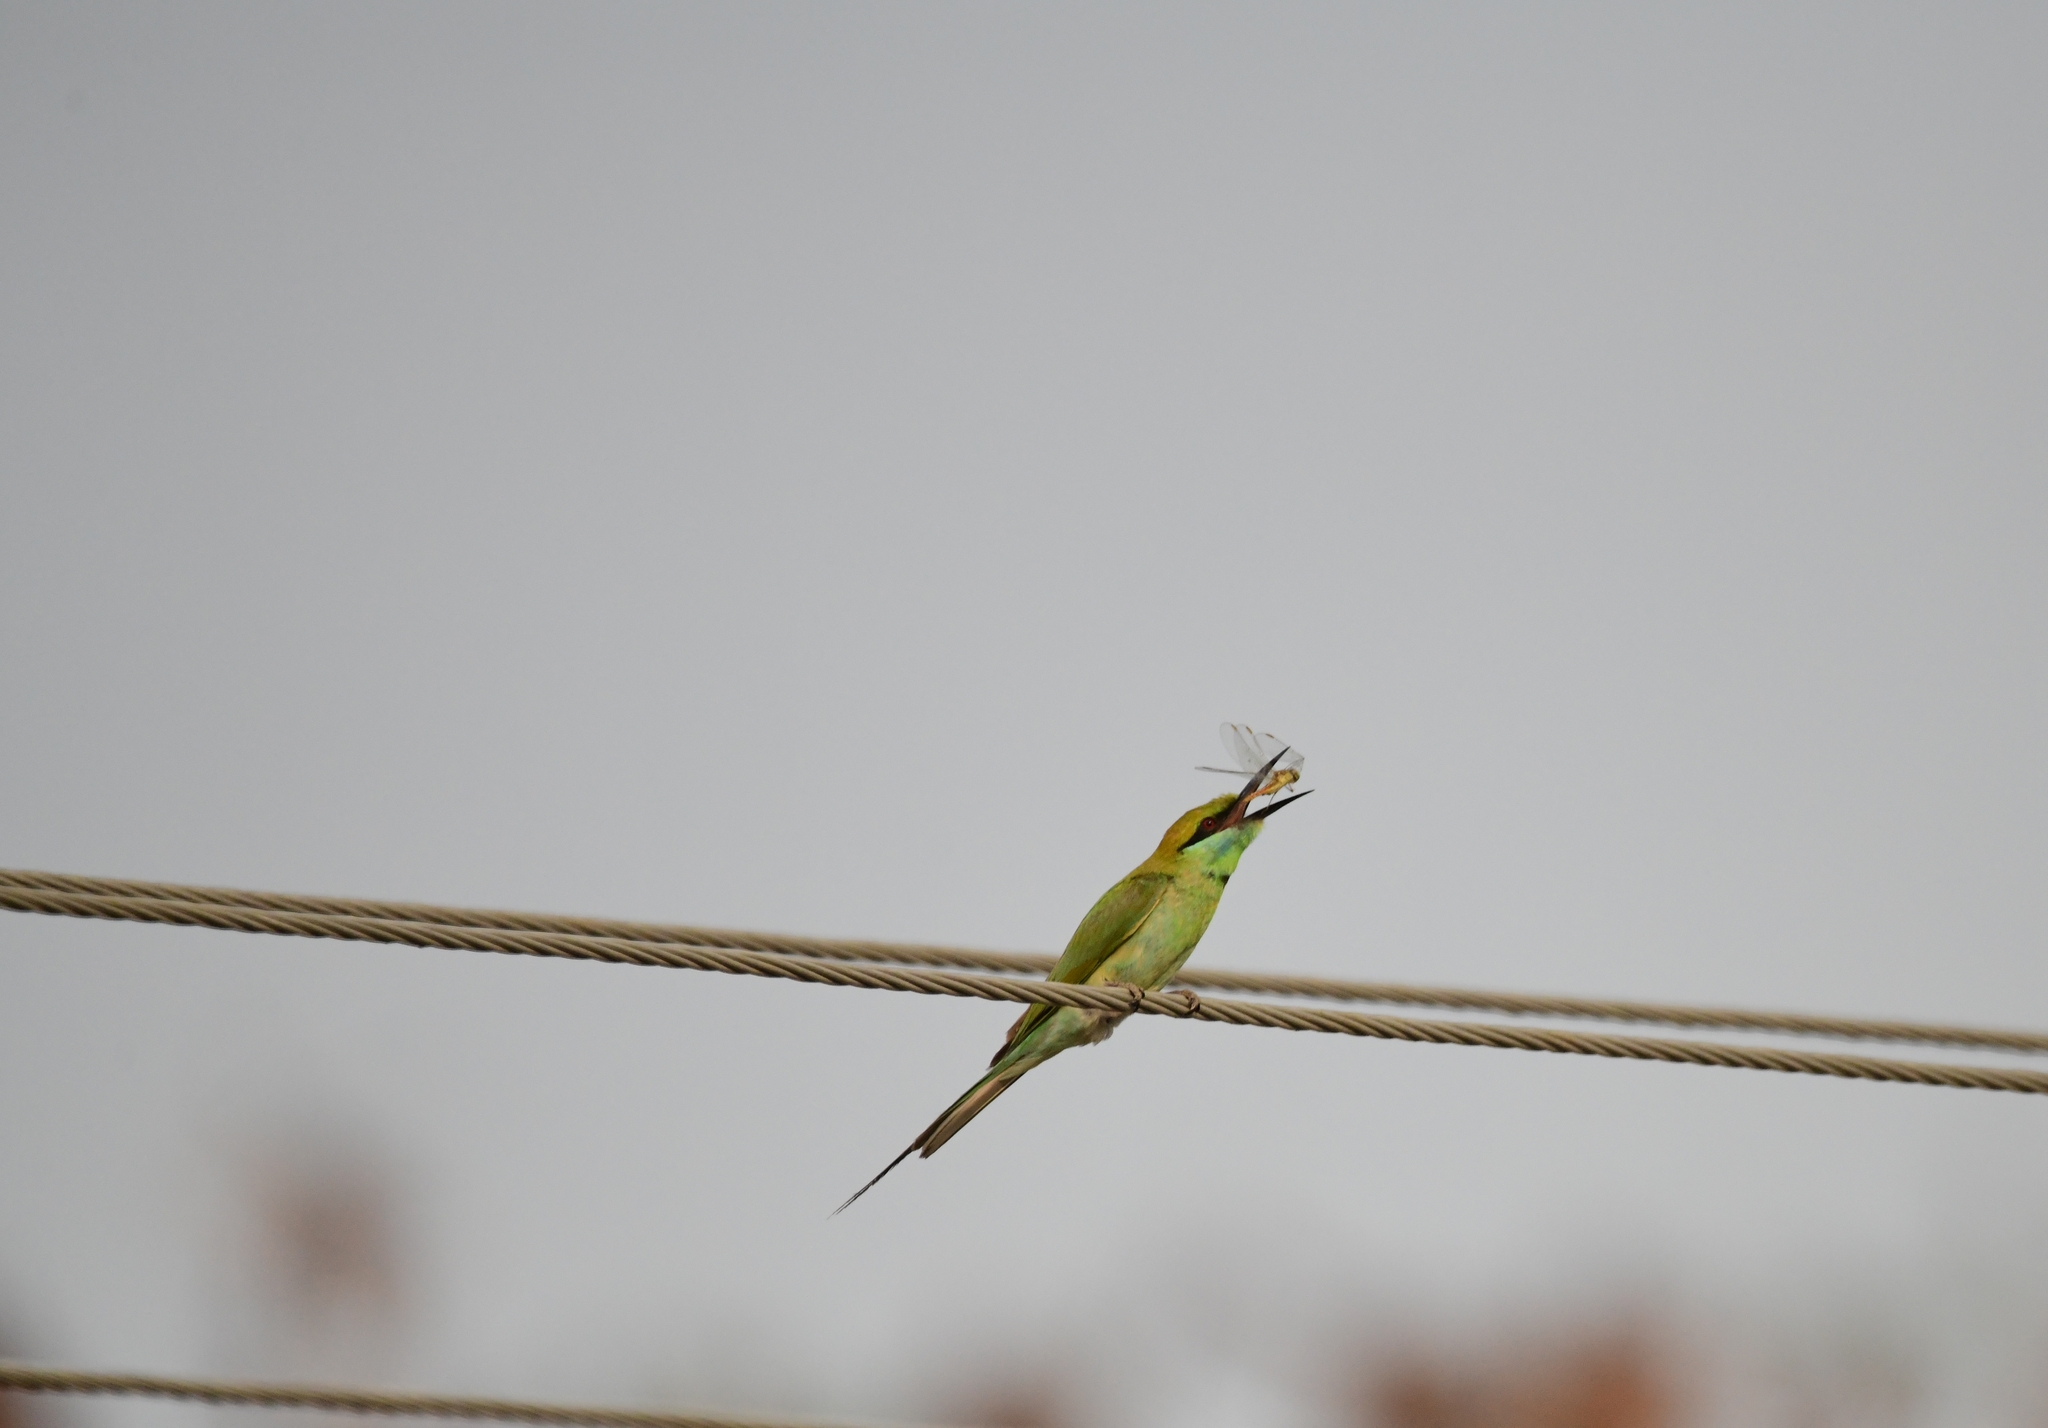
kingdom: Animalia
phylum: Chordata
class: Aves
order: Coraciiformes
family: Meropidae
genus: Merops
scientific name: Merops orientalis
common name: Green bee-eater
